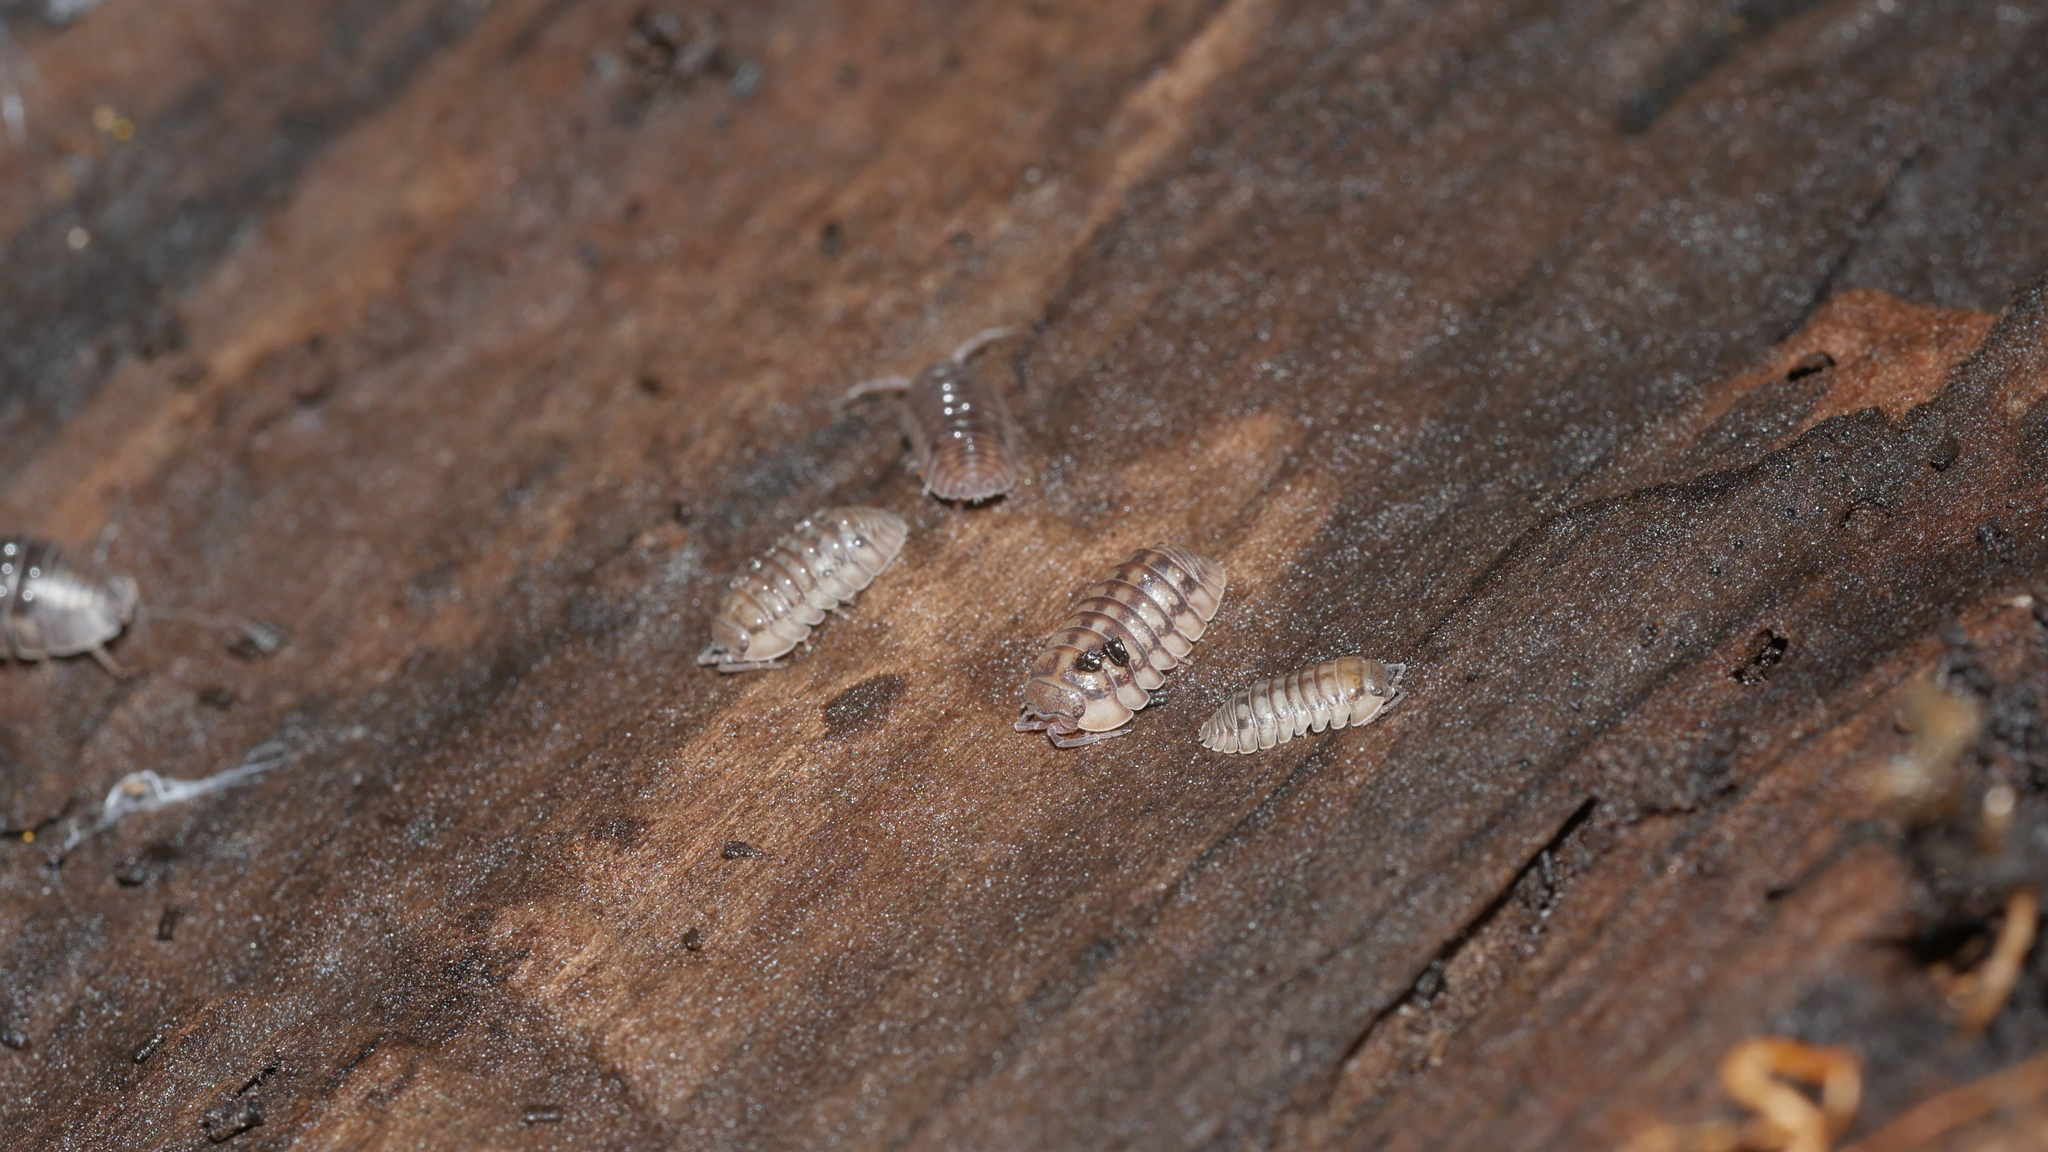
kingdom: Animalia
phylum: Arthropoda
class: Malacostraca
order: Isopoda
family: Armadillidiidae
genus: Armadillidium
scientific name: Armadillidium nasatum
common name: Isopod
